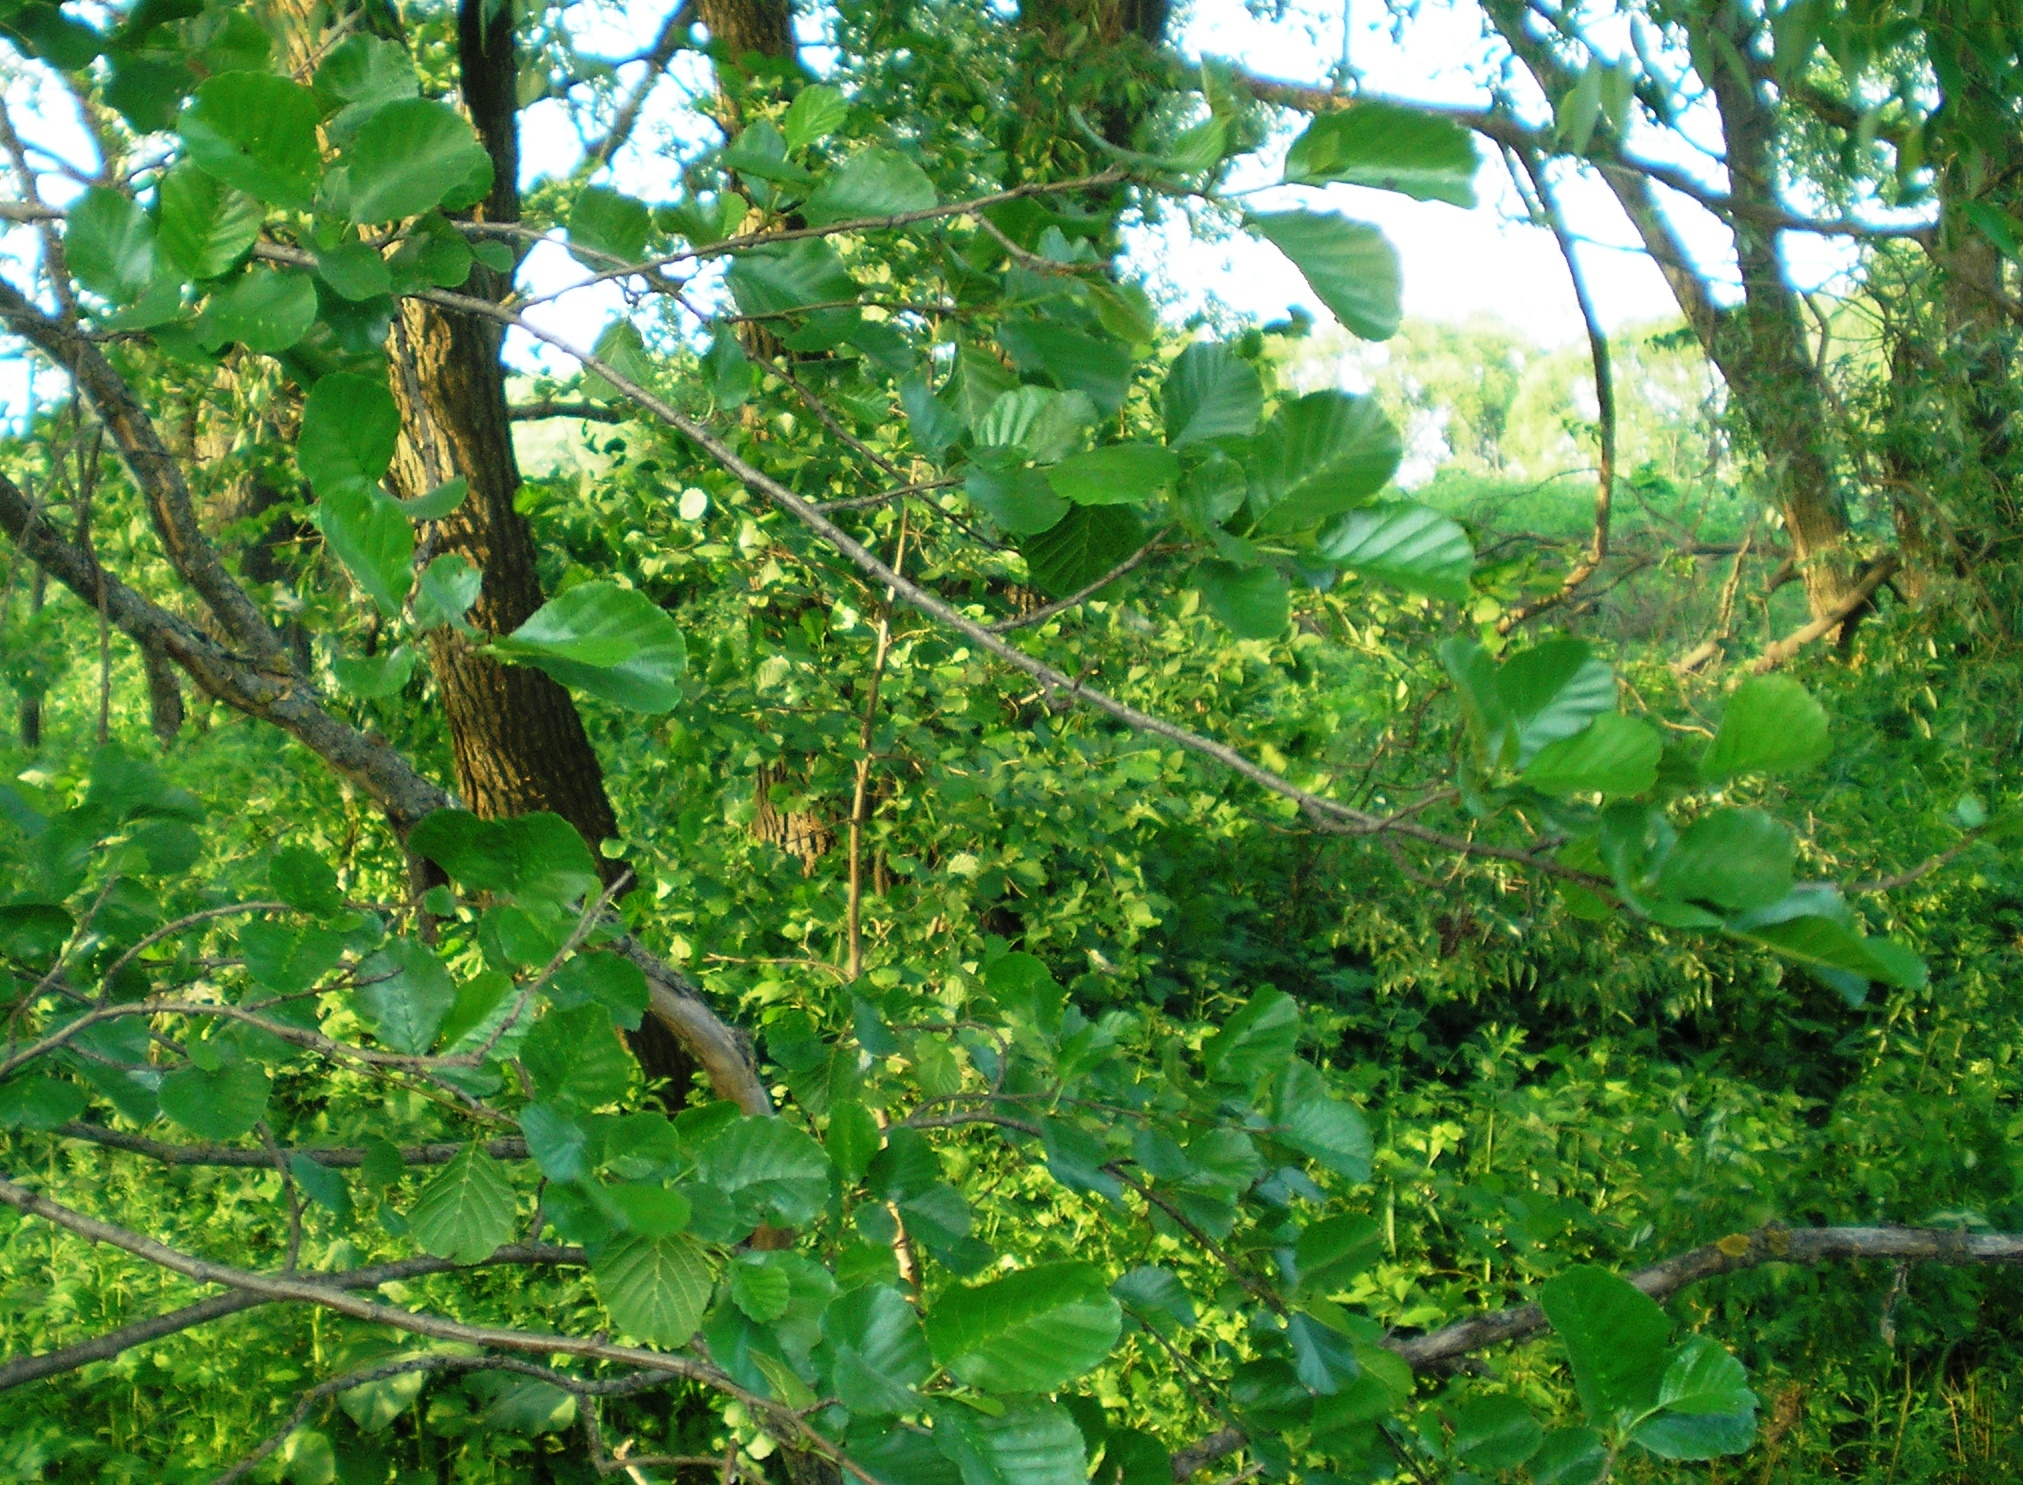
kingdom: Plantae
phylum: Tracheophyta
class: Magnoliopsida
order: Fagales
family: Betulaceae
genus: Alnus
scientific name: Alnus glutinosa
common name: Black alder
